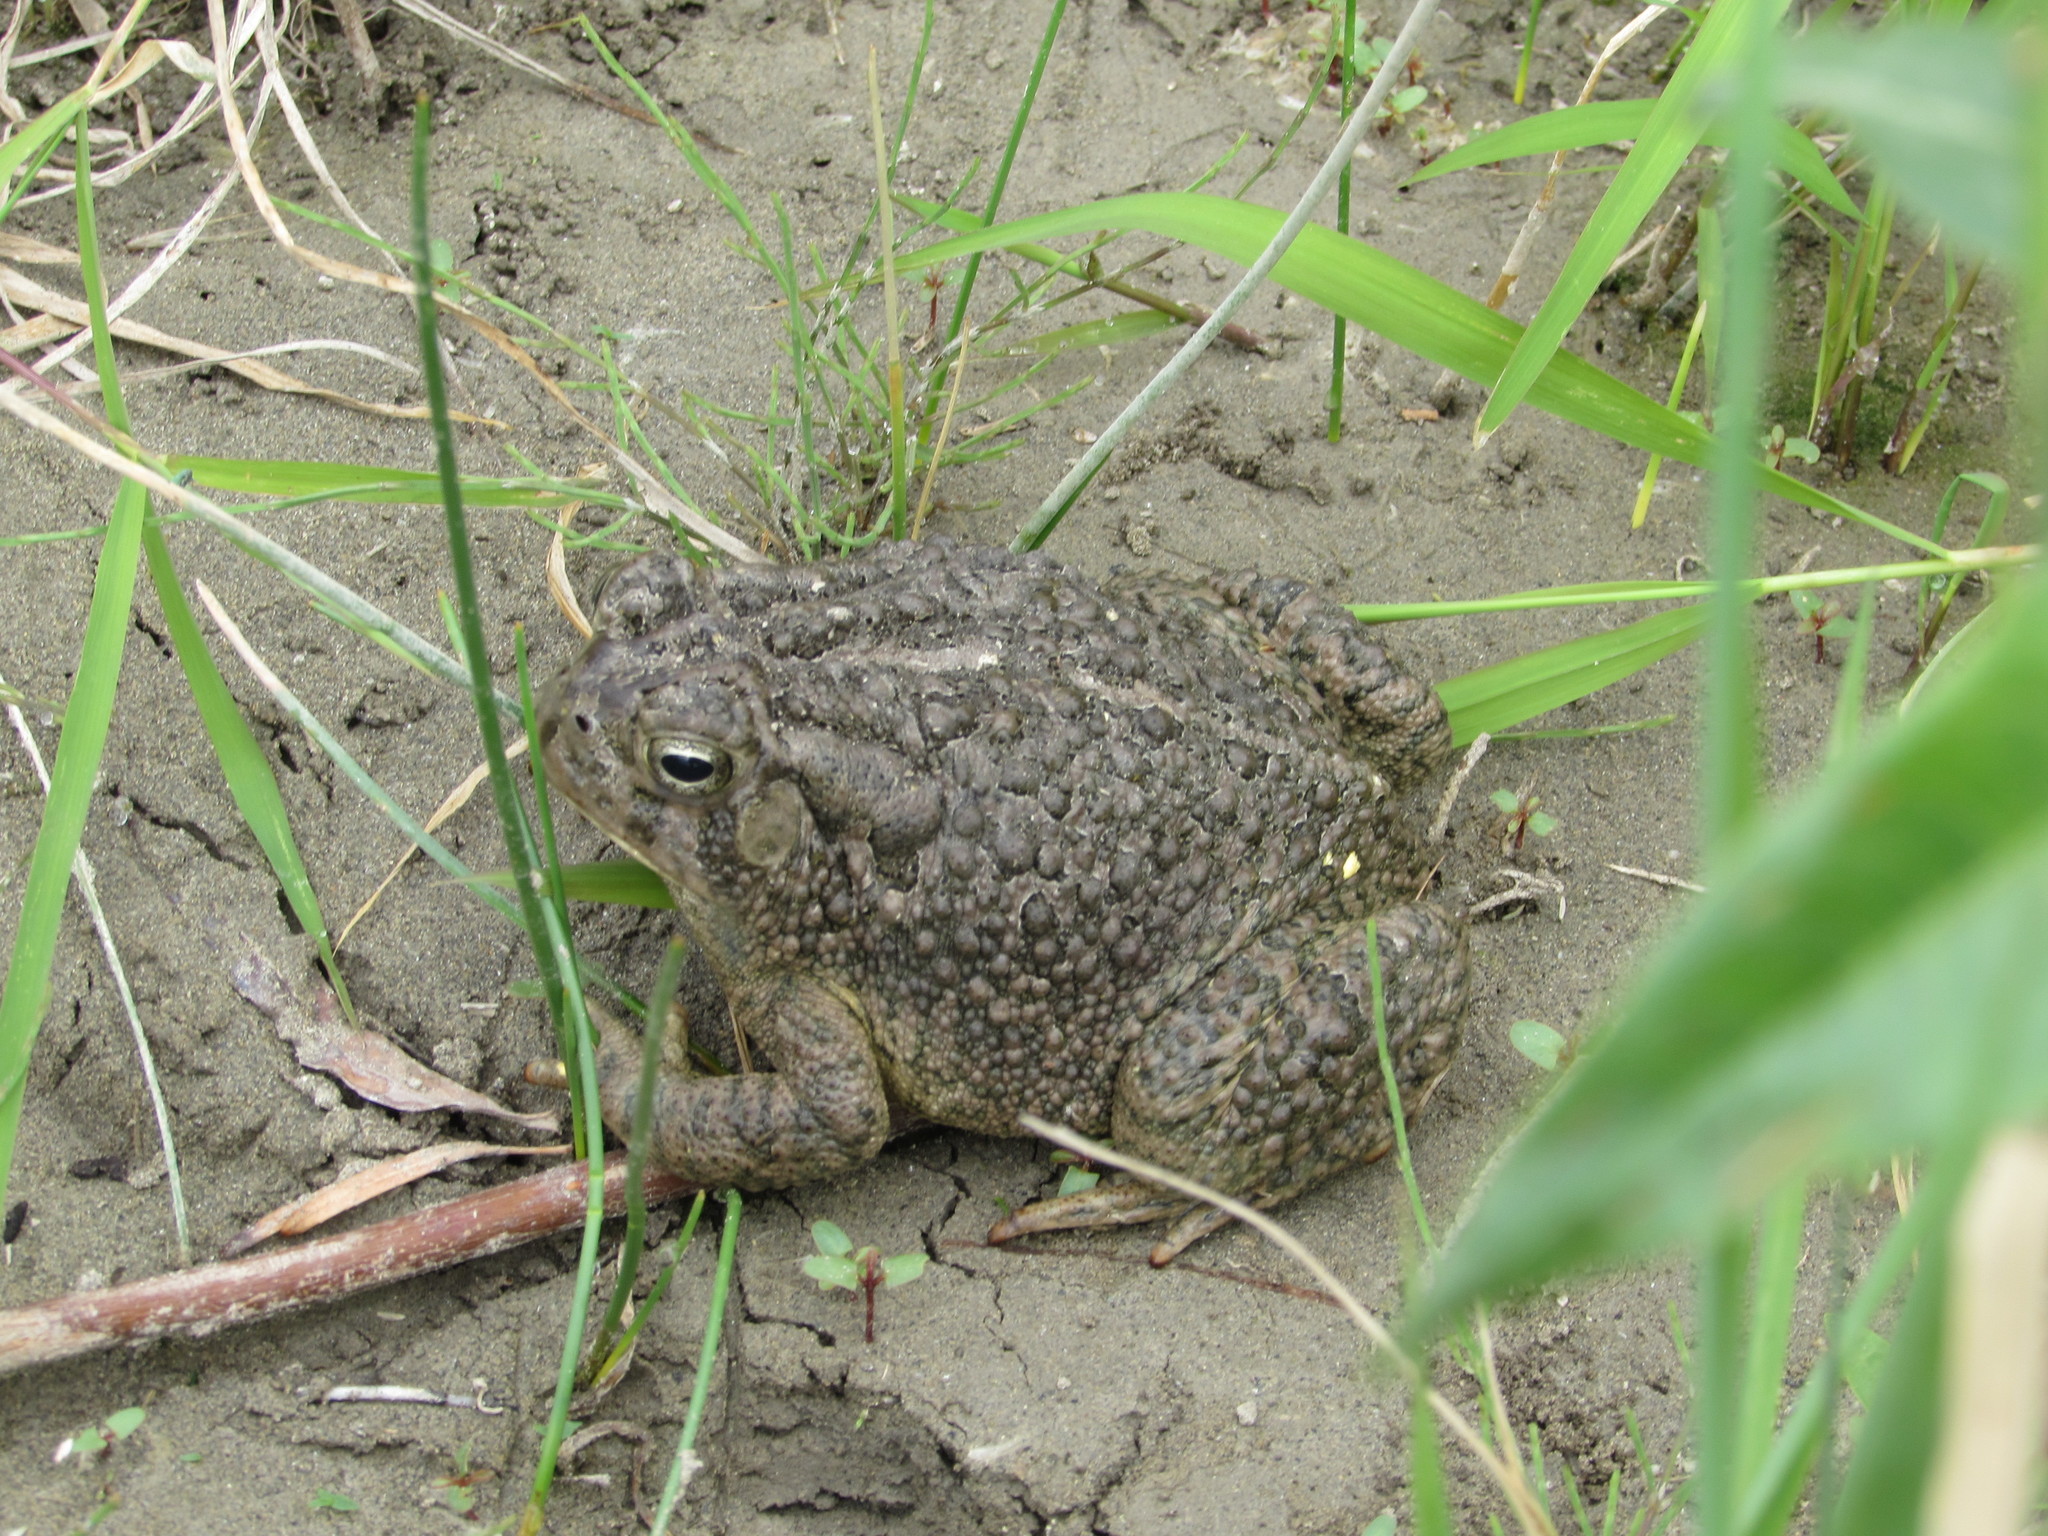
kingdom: Animalia
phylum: Chordata
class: Amphibia
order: Anura
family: Bufonidae
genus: Anaxyrus
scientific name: Anaxyrus woodhousii
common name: Woodhouse's toad
